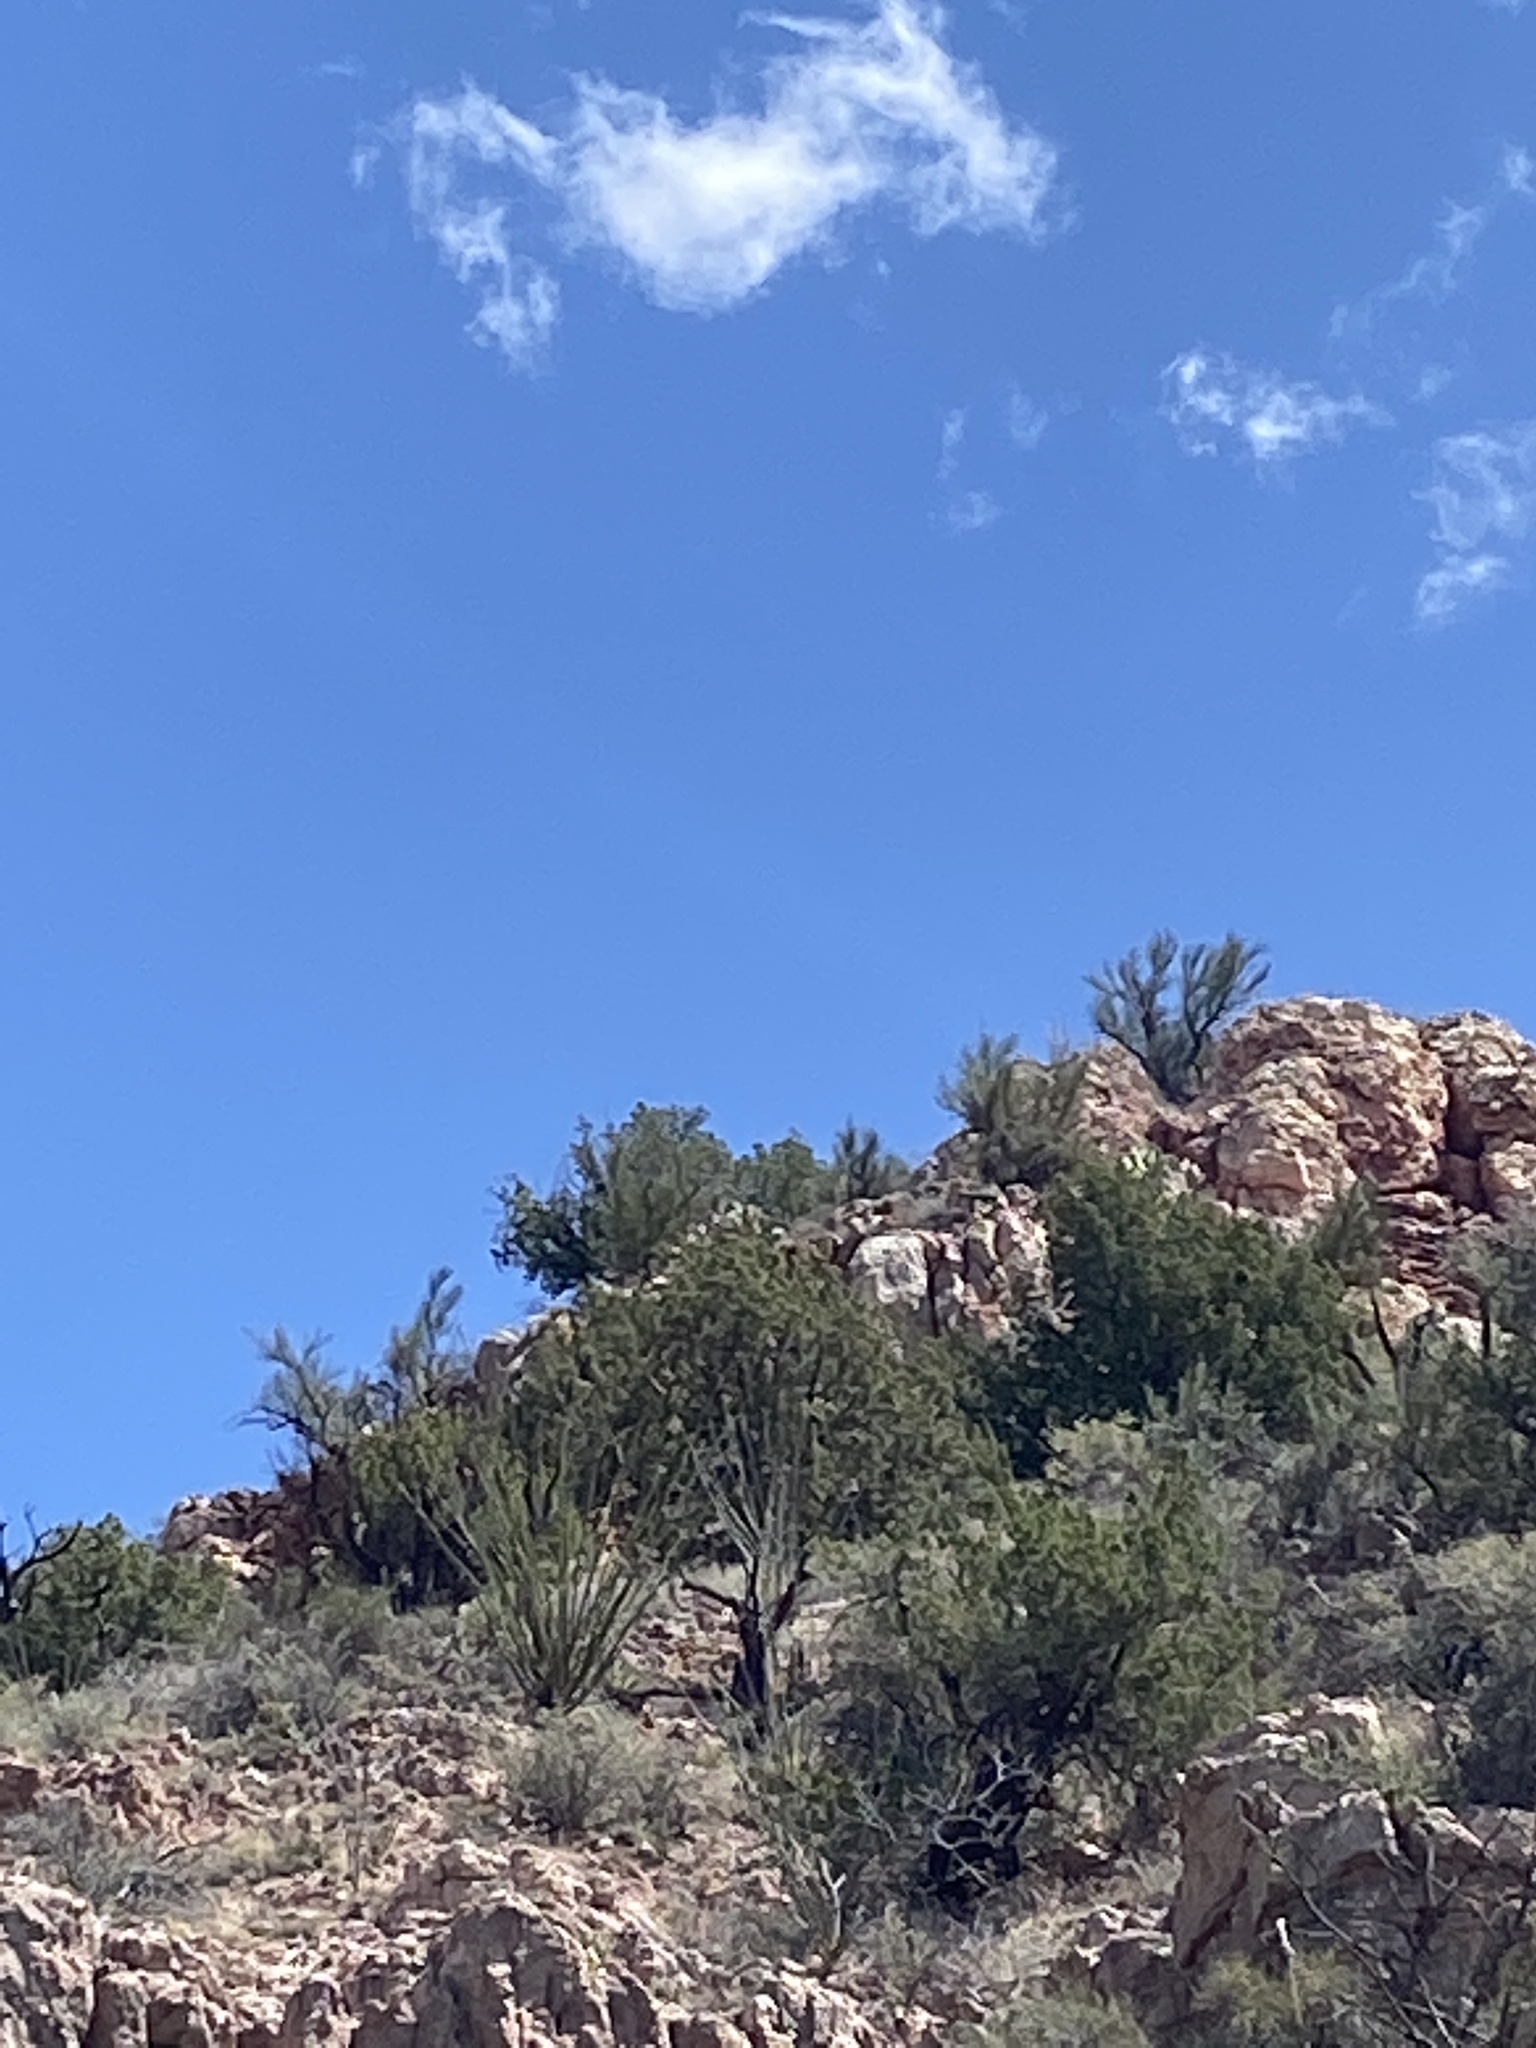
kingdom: Plantae
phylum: Tracheophyta
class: Magnoliopsida
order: Ericales
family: Fouquieriaceae
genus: Fouquieria
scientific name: Fouquieria splendens
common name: Vine-cactus
